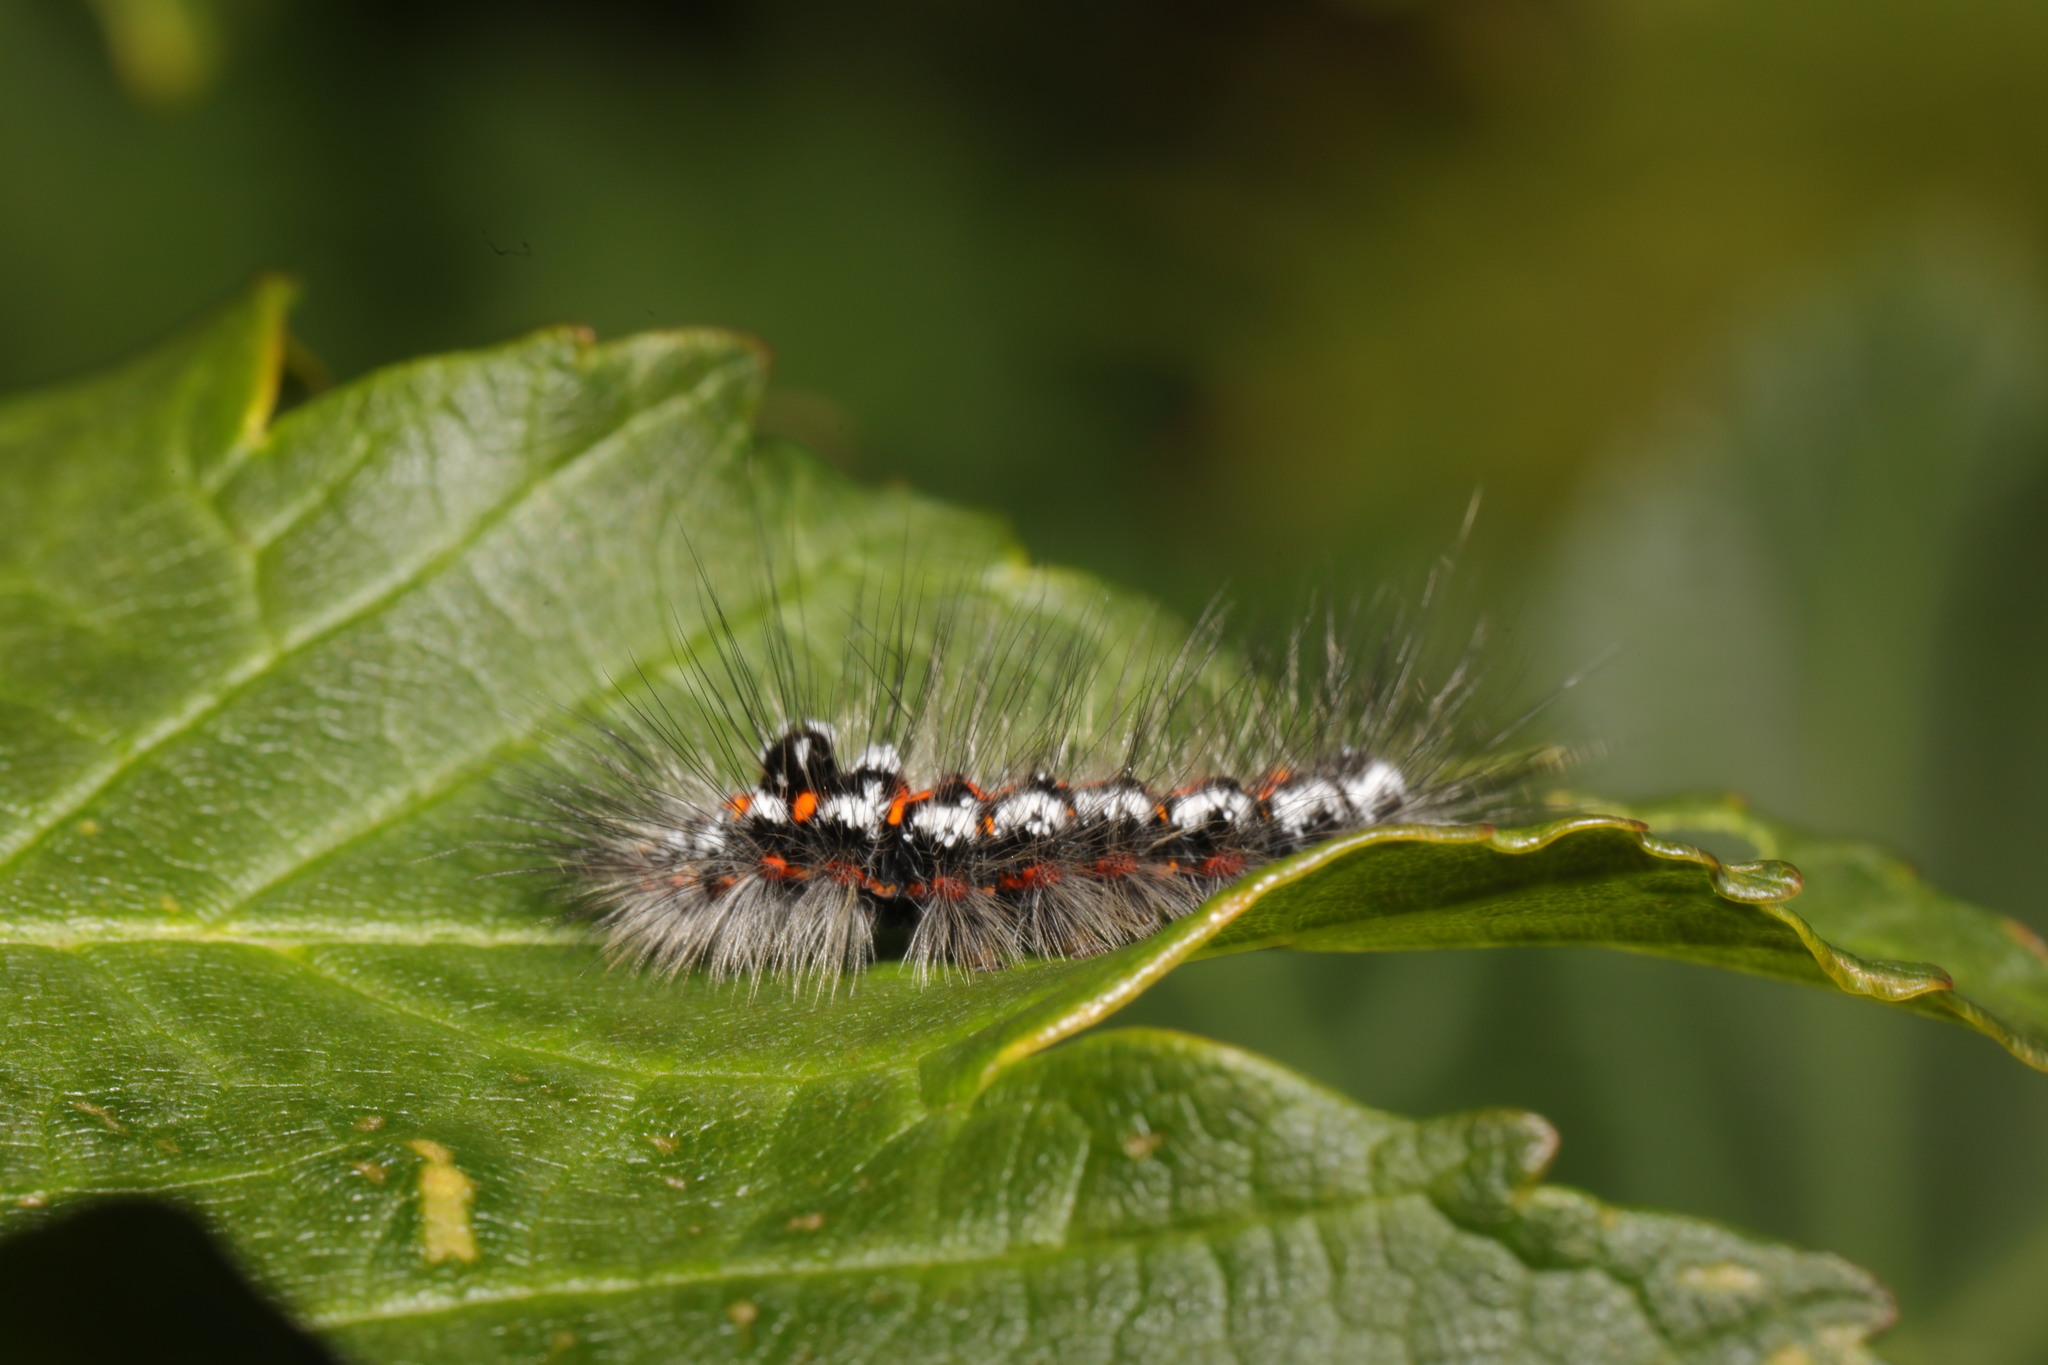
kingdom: Animalia
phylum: Arthropoda
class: Insecta
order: Lepidoptera
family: Erebidae
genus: Sphrageidus
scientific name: Sphrageidus similis
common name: Yellow-tail
